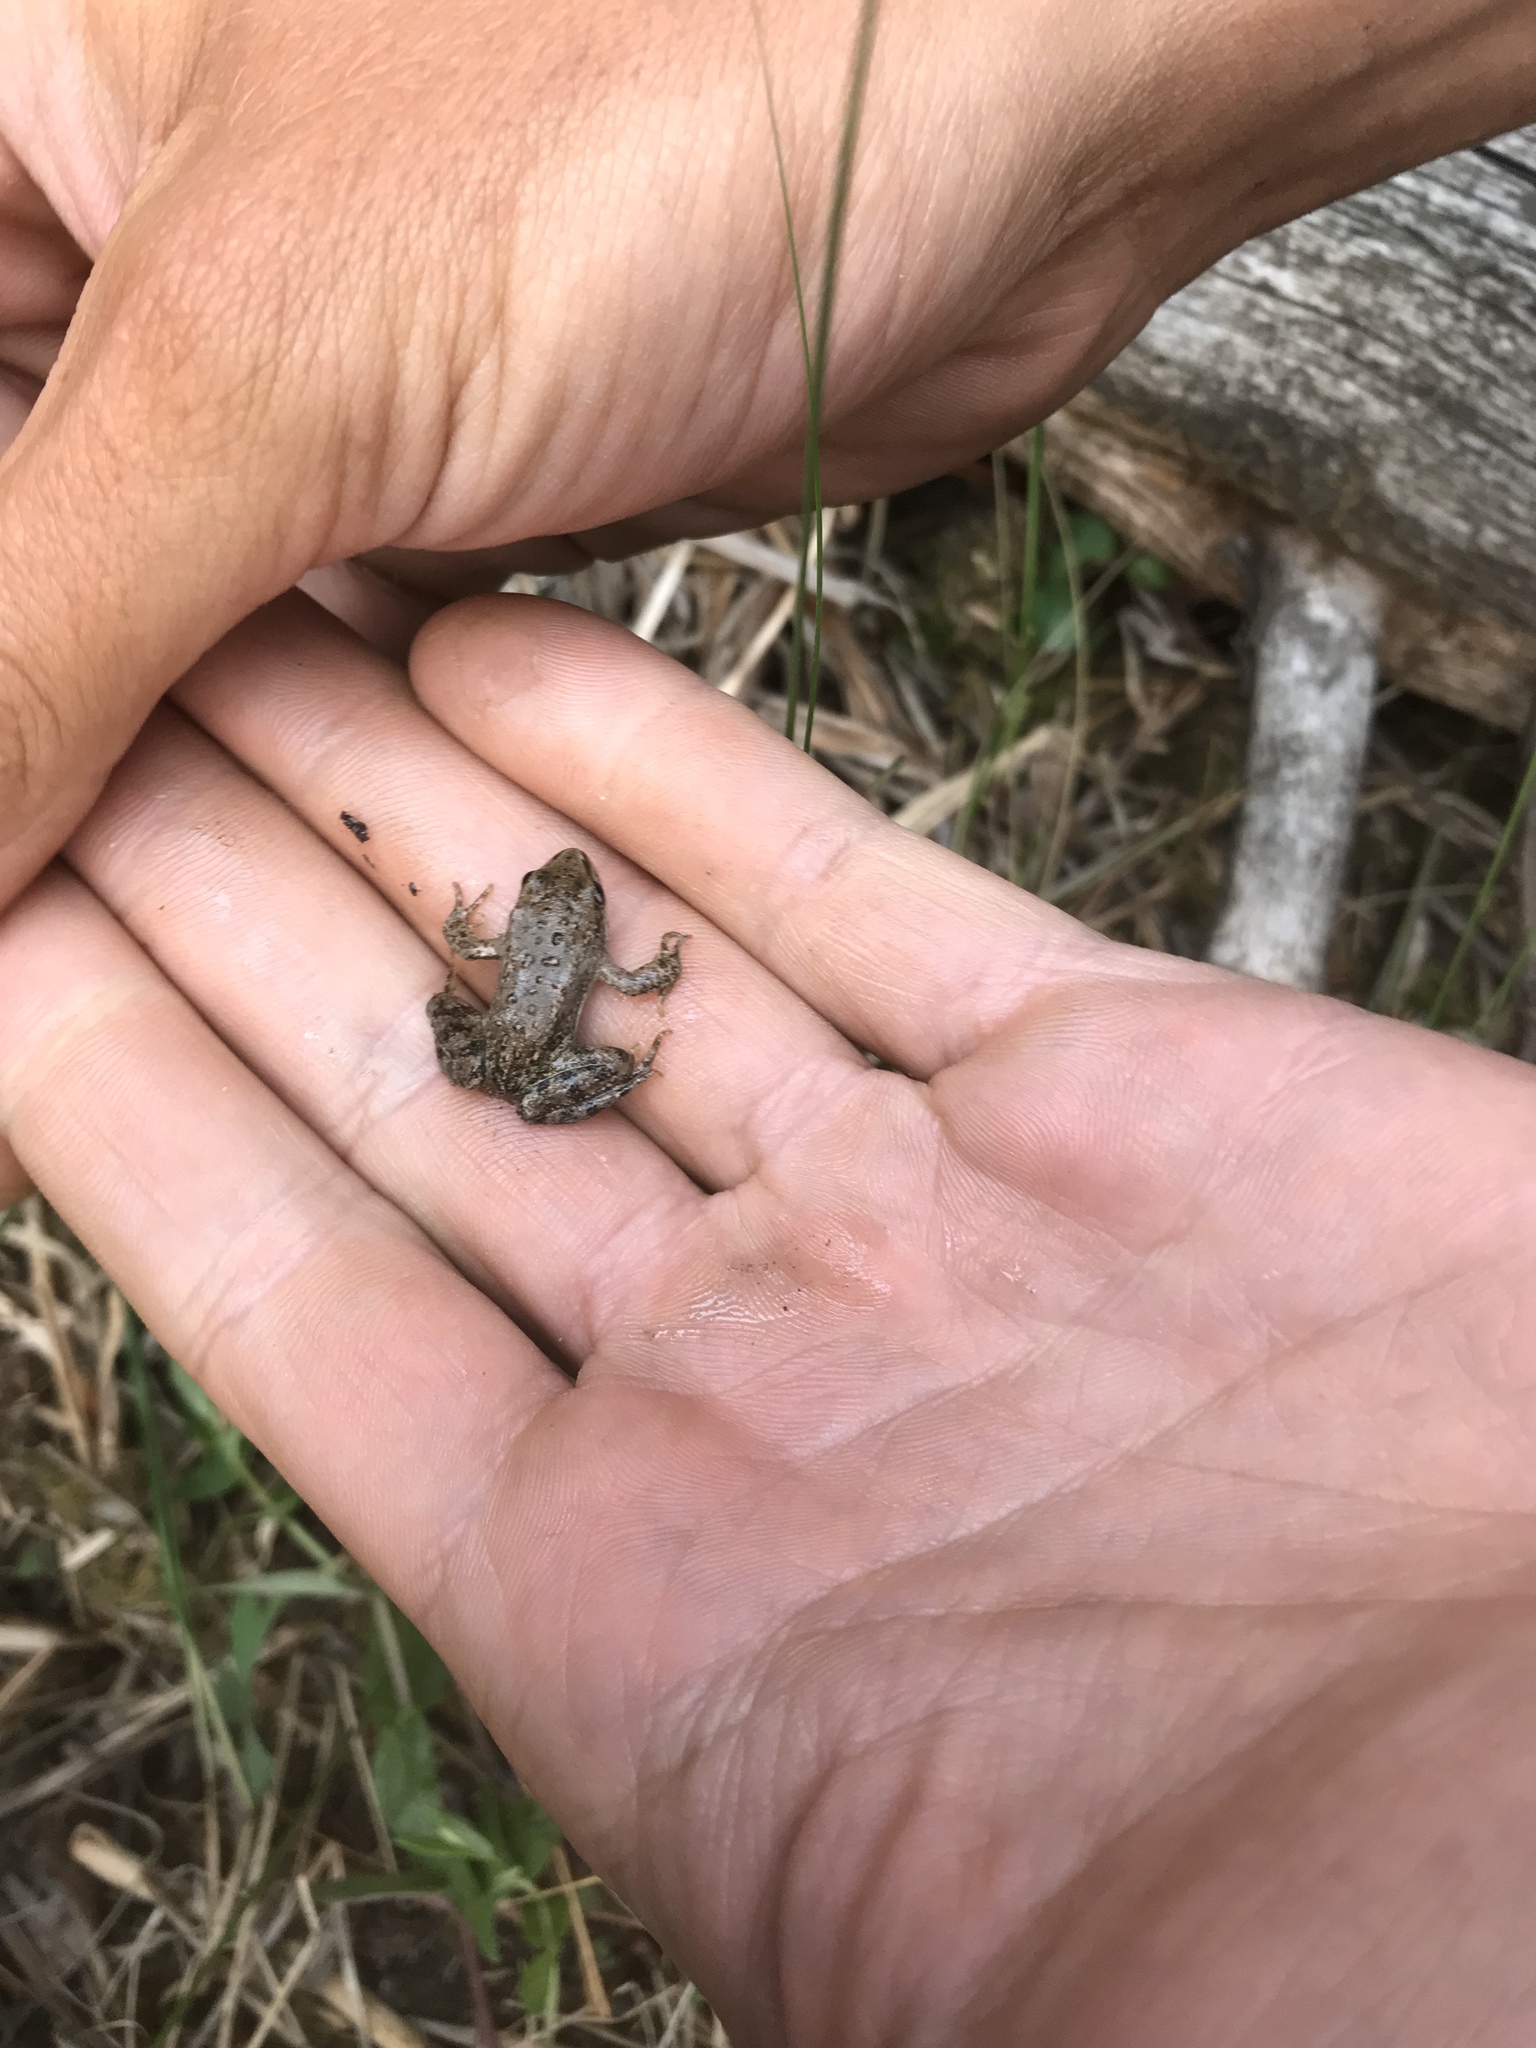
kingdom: Animalia
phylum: Chordata
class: Amphibia
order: Anura
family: Ranidae
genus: Rana
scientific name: Rana luteiventris
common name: Columbia spotted frog
